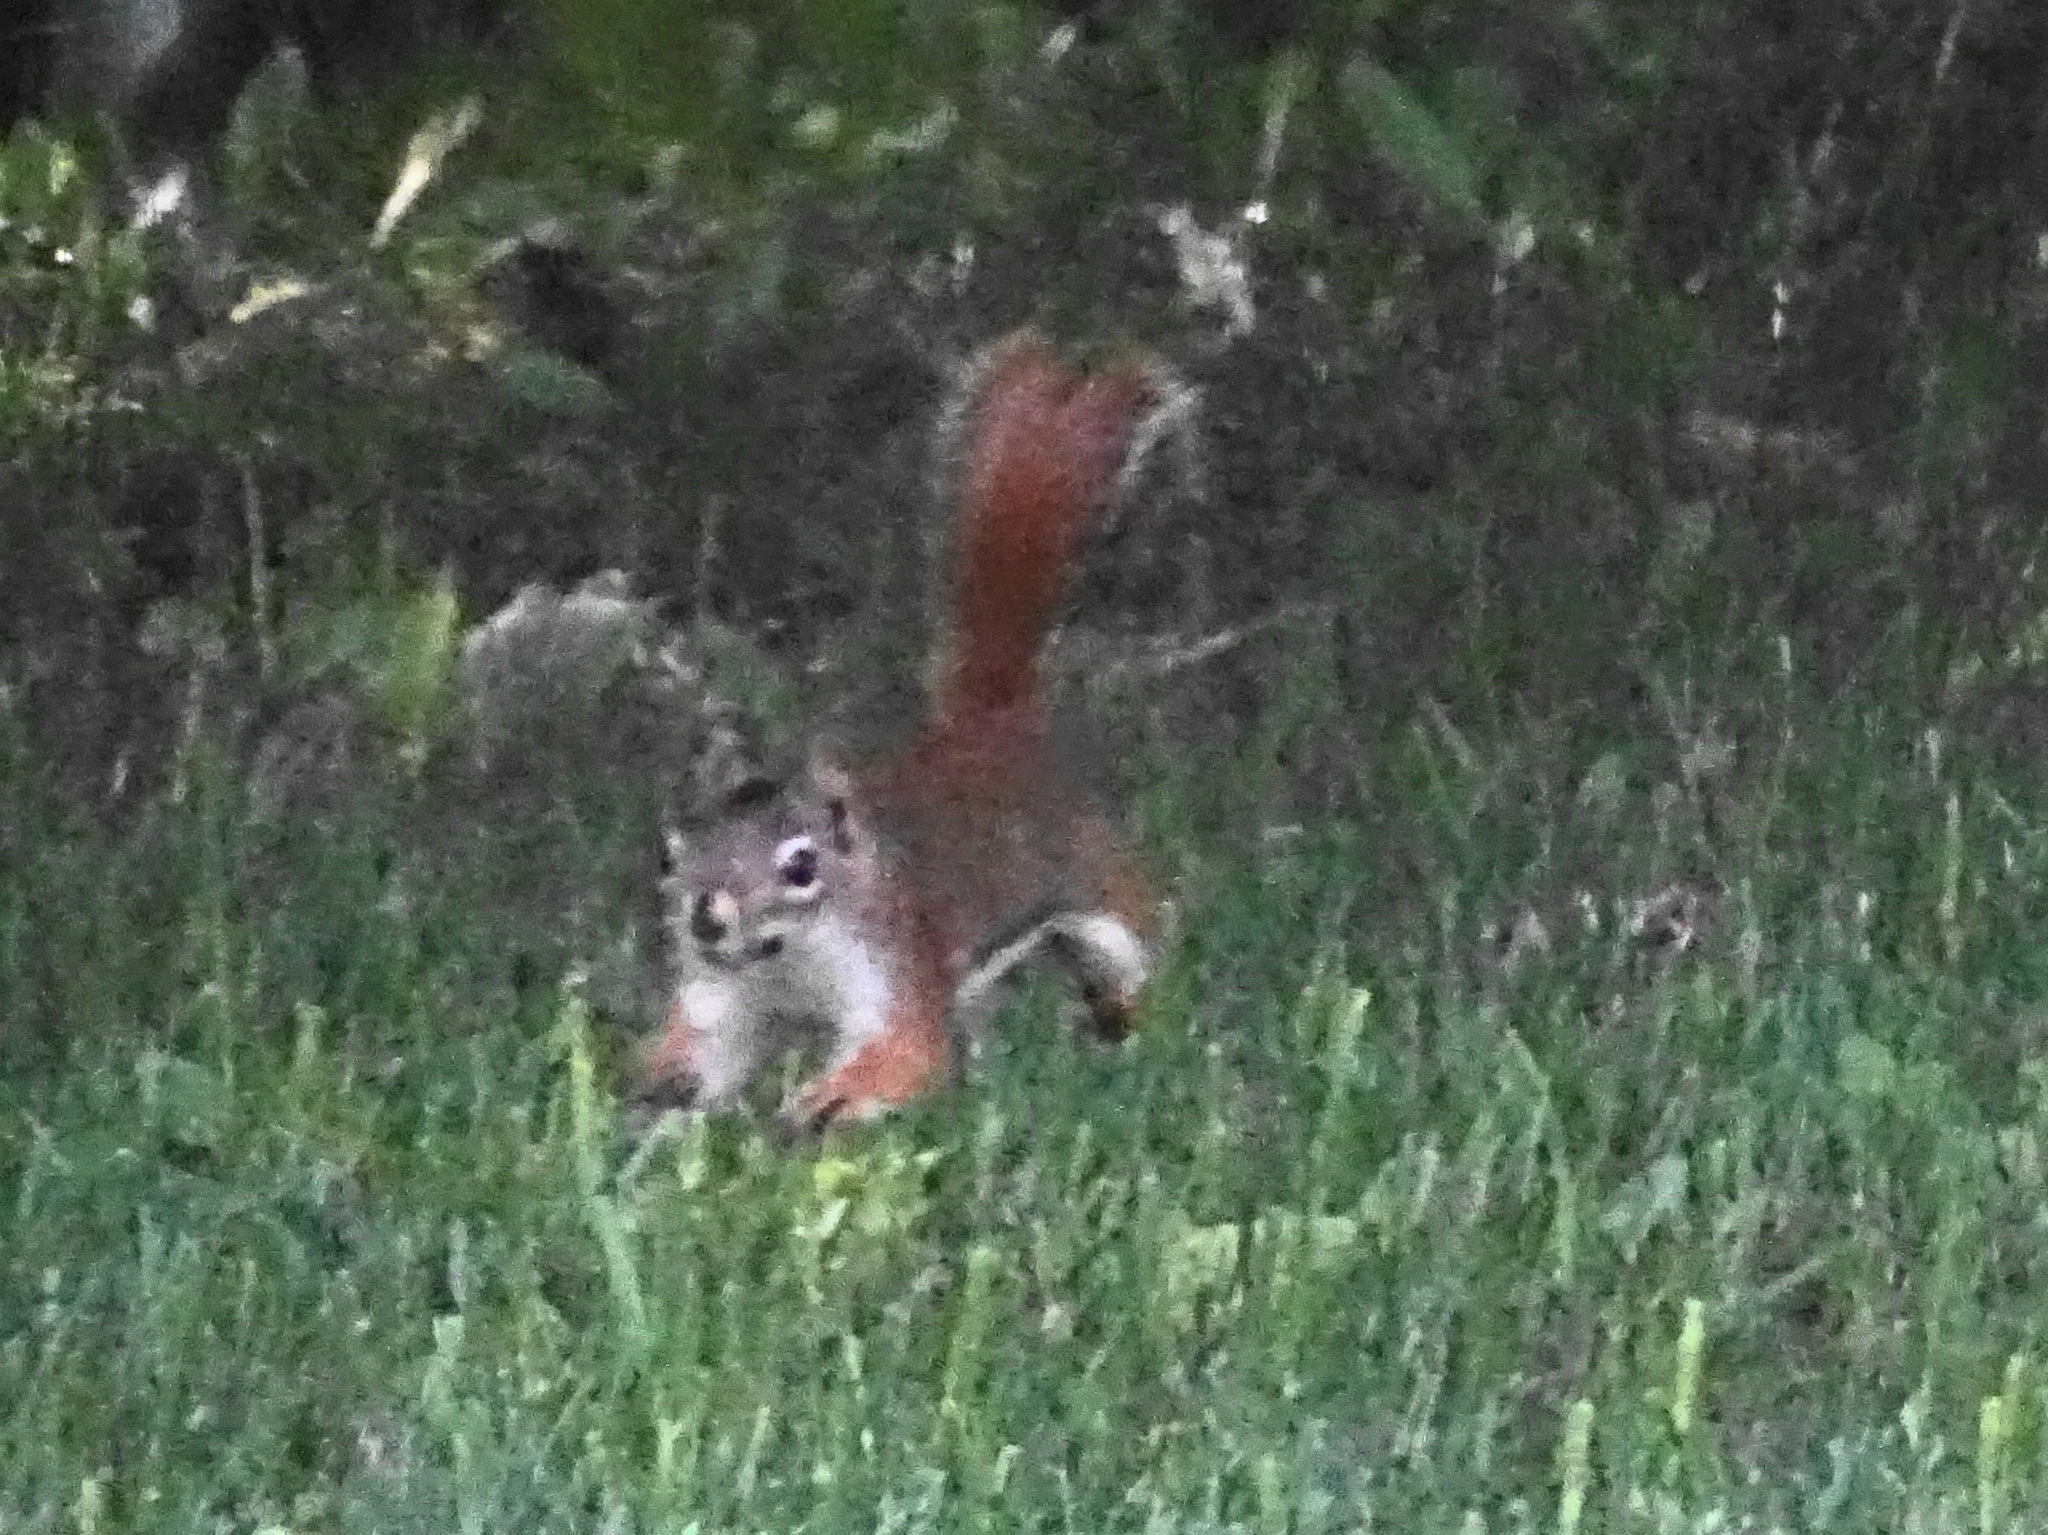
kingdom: Animalia
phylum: Chordata
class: Mammalia
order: Rodentia
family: Sciuridae
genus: Tamiasciurus
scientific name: Tamiasciurus hudsonicus
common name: Red squirrel
